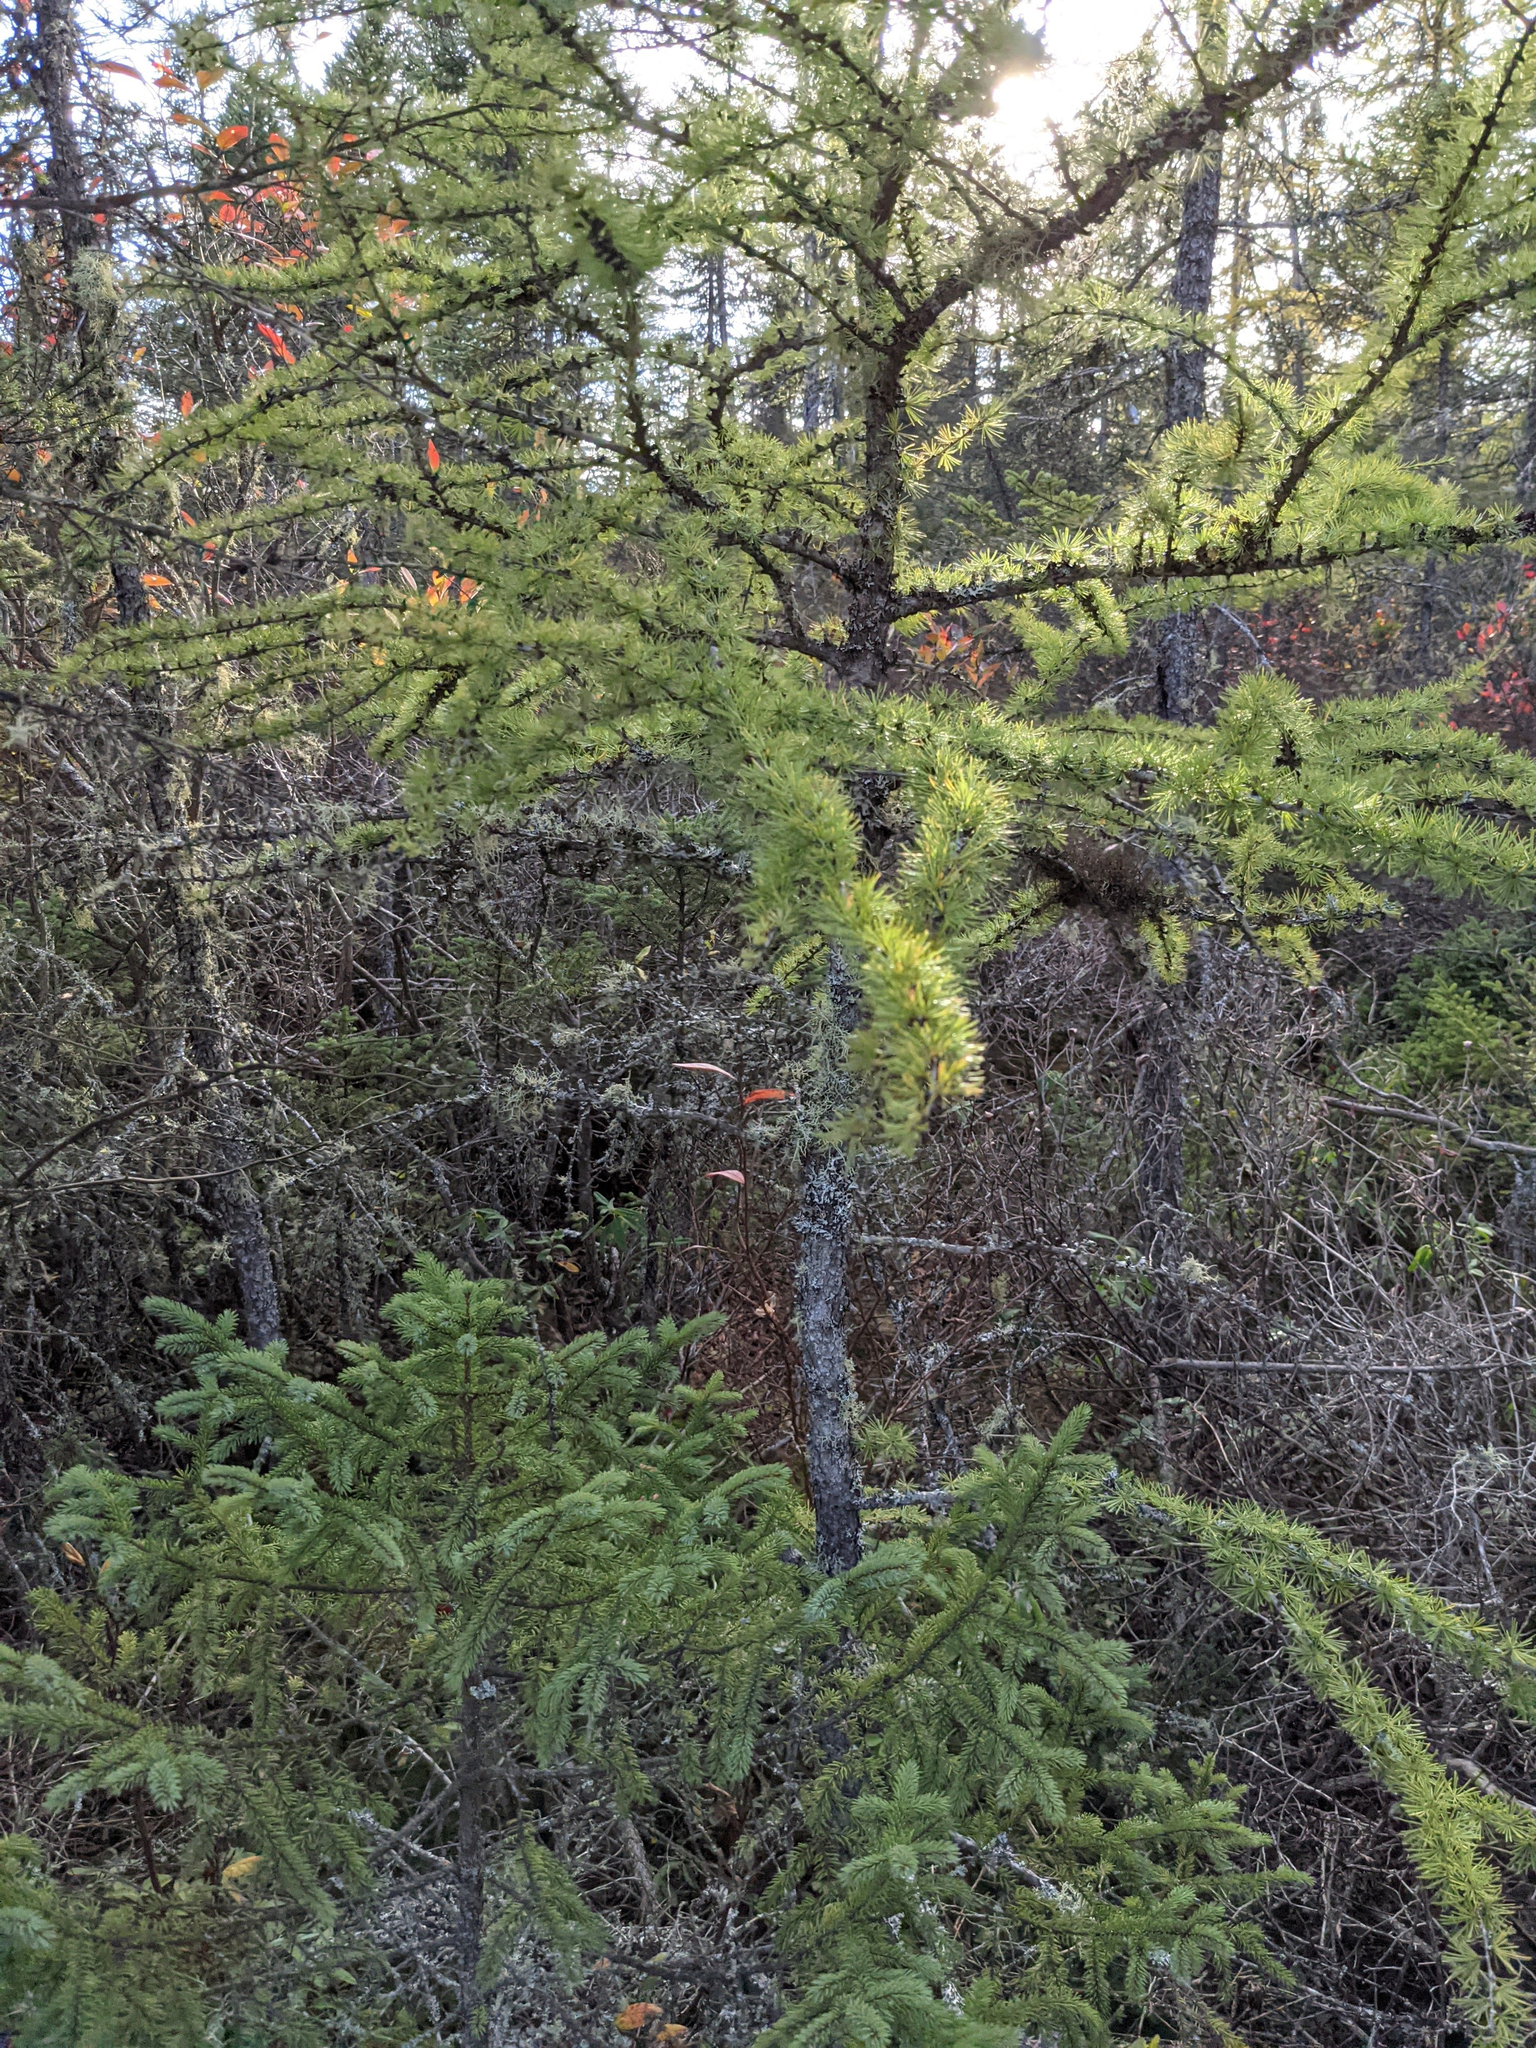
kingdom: Plantae
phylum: Tracheophyta
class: Pinopsida
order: Pinales
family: Pinaceae
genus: Larix
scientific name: Larix laricina
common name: American larch
